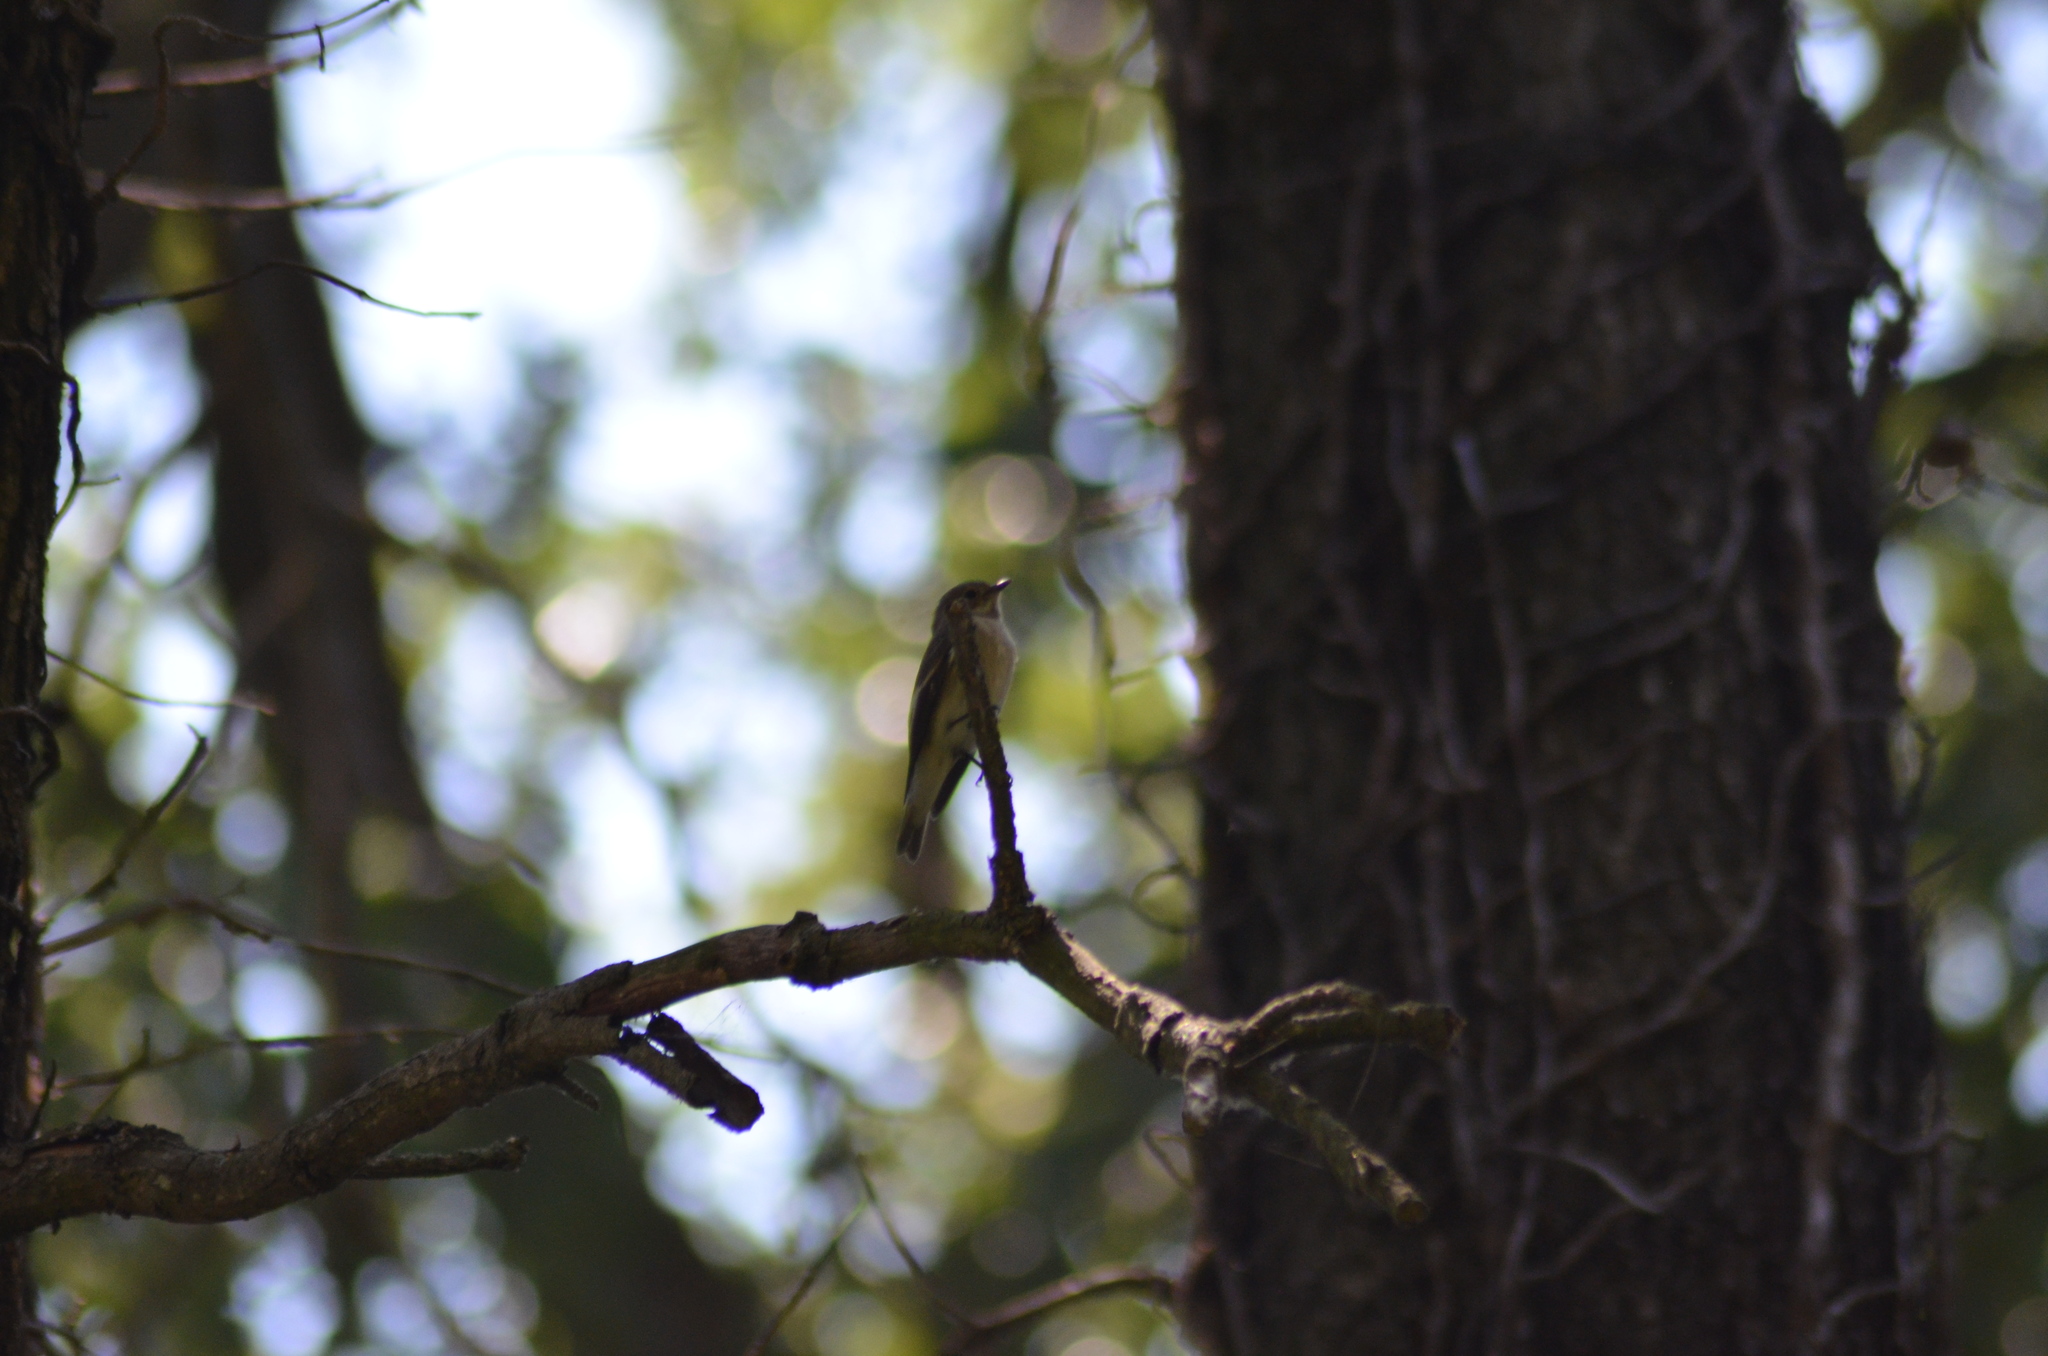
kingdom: Animalia
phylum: Chordata
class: Aves
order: Passeriformes
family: Muscicapidae
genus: Ficedula
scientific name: Ficedula hypoleuca
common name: European pied flycatcher
